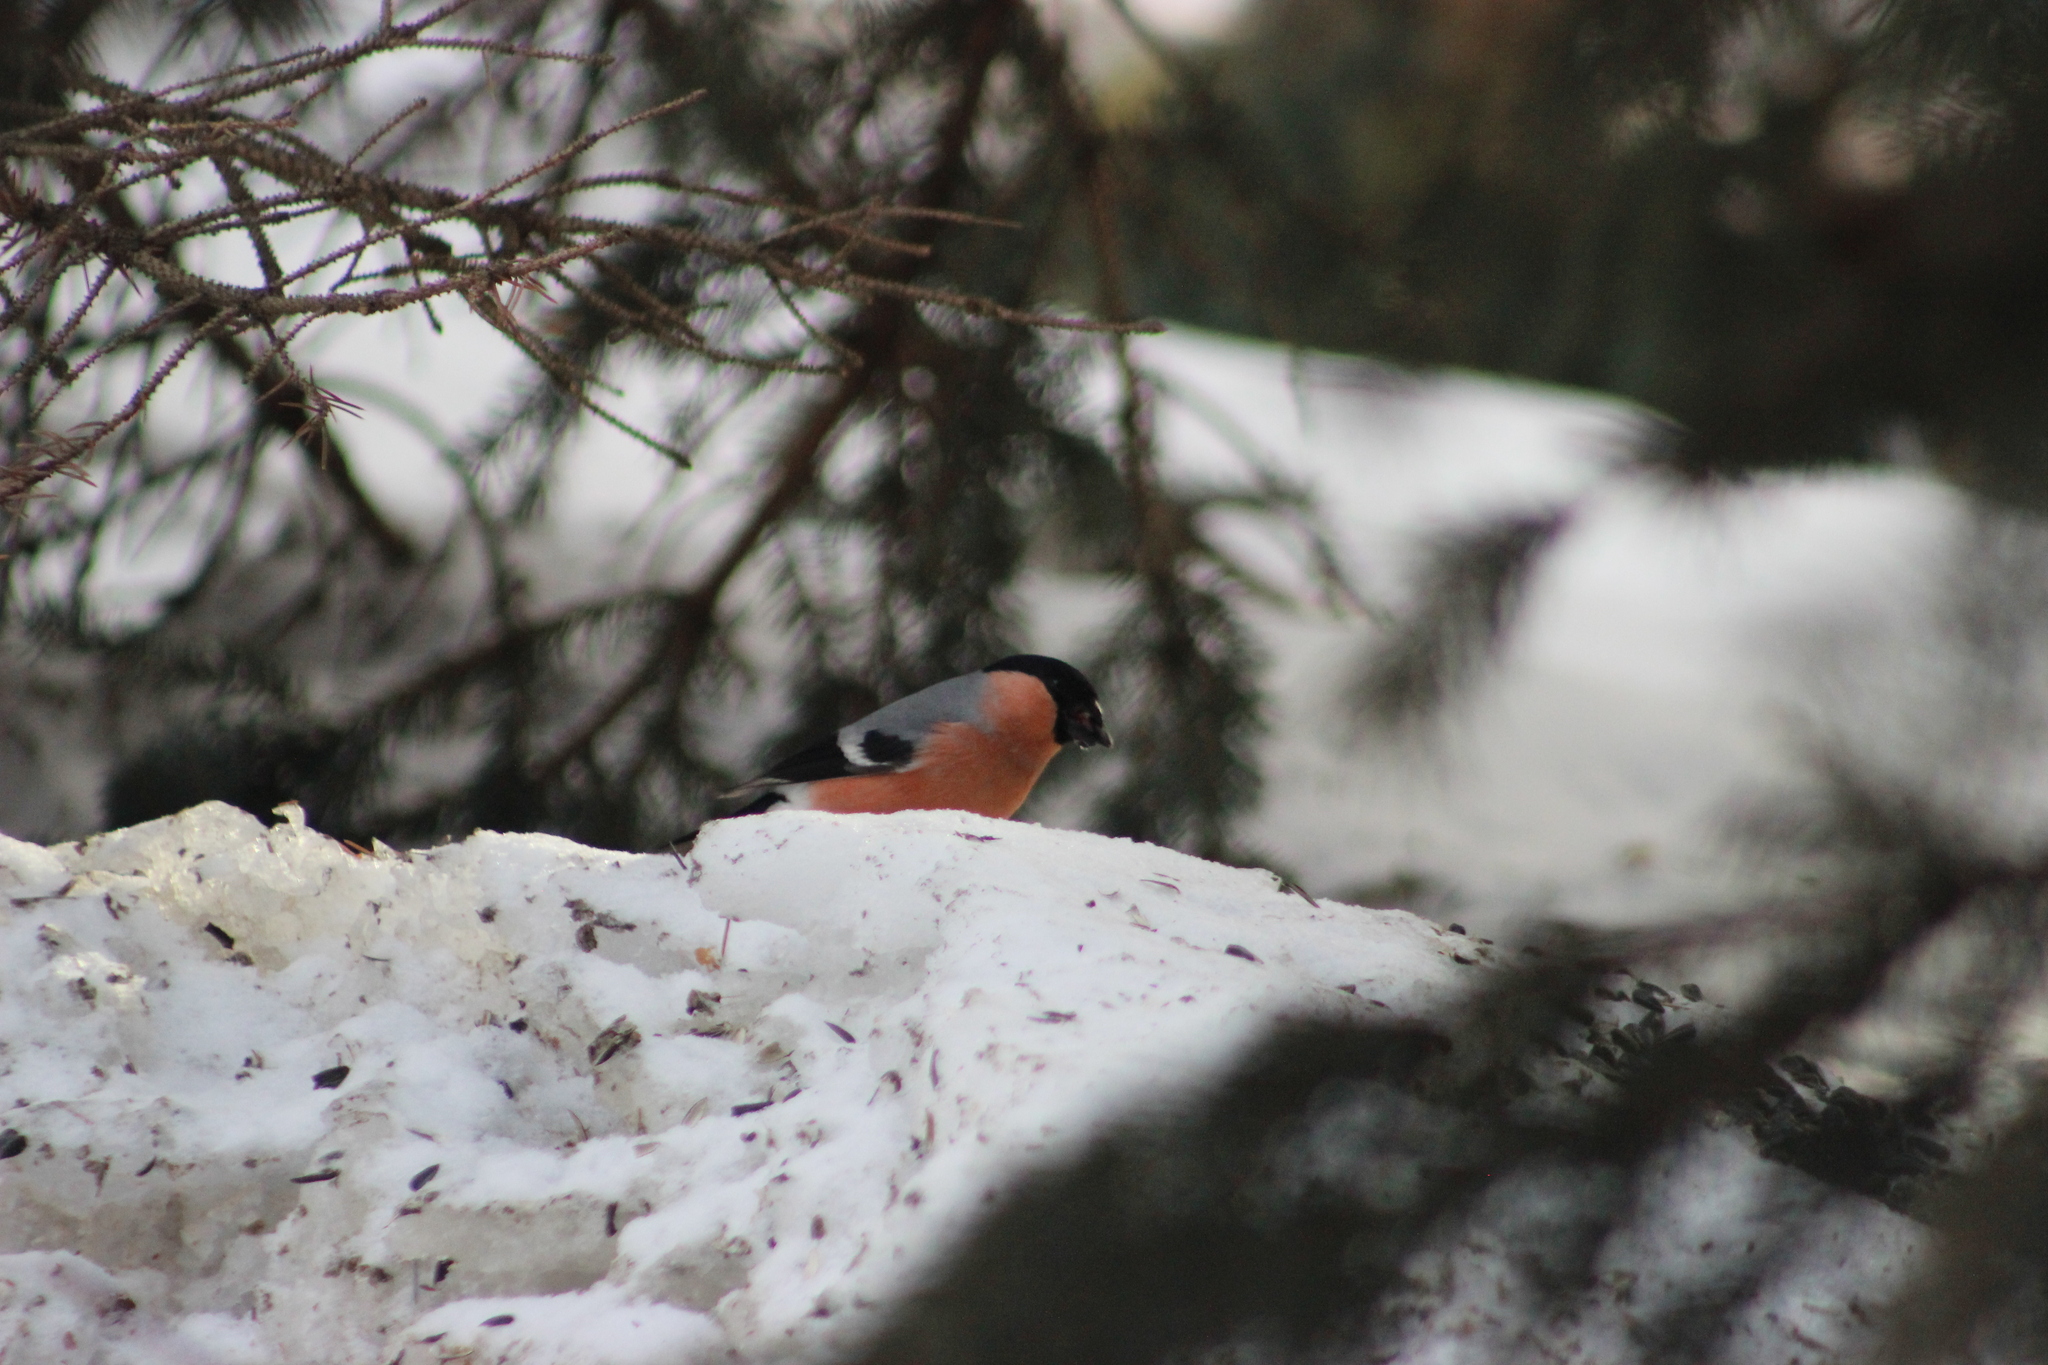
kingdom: Animalia
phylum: Chordata
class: Aves
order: Passeriformes
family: Fringillidae
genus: Pyrrhula
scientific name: Pyrrhula pyrrhula
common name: Eurasian bullfinch
